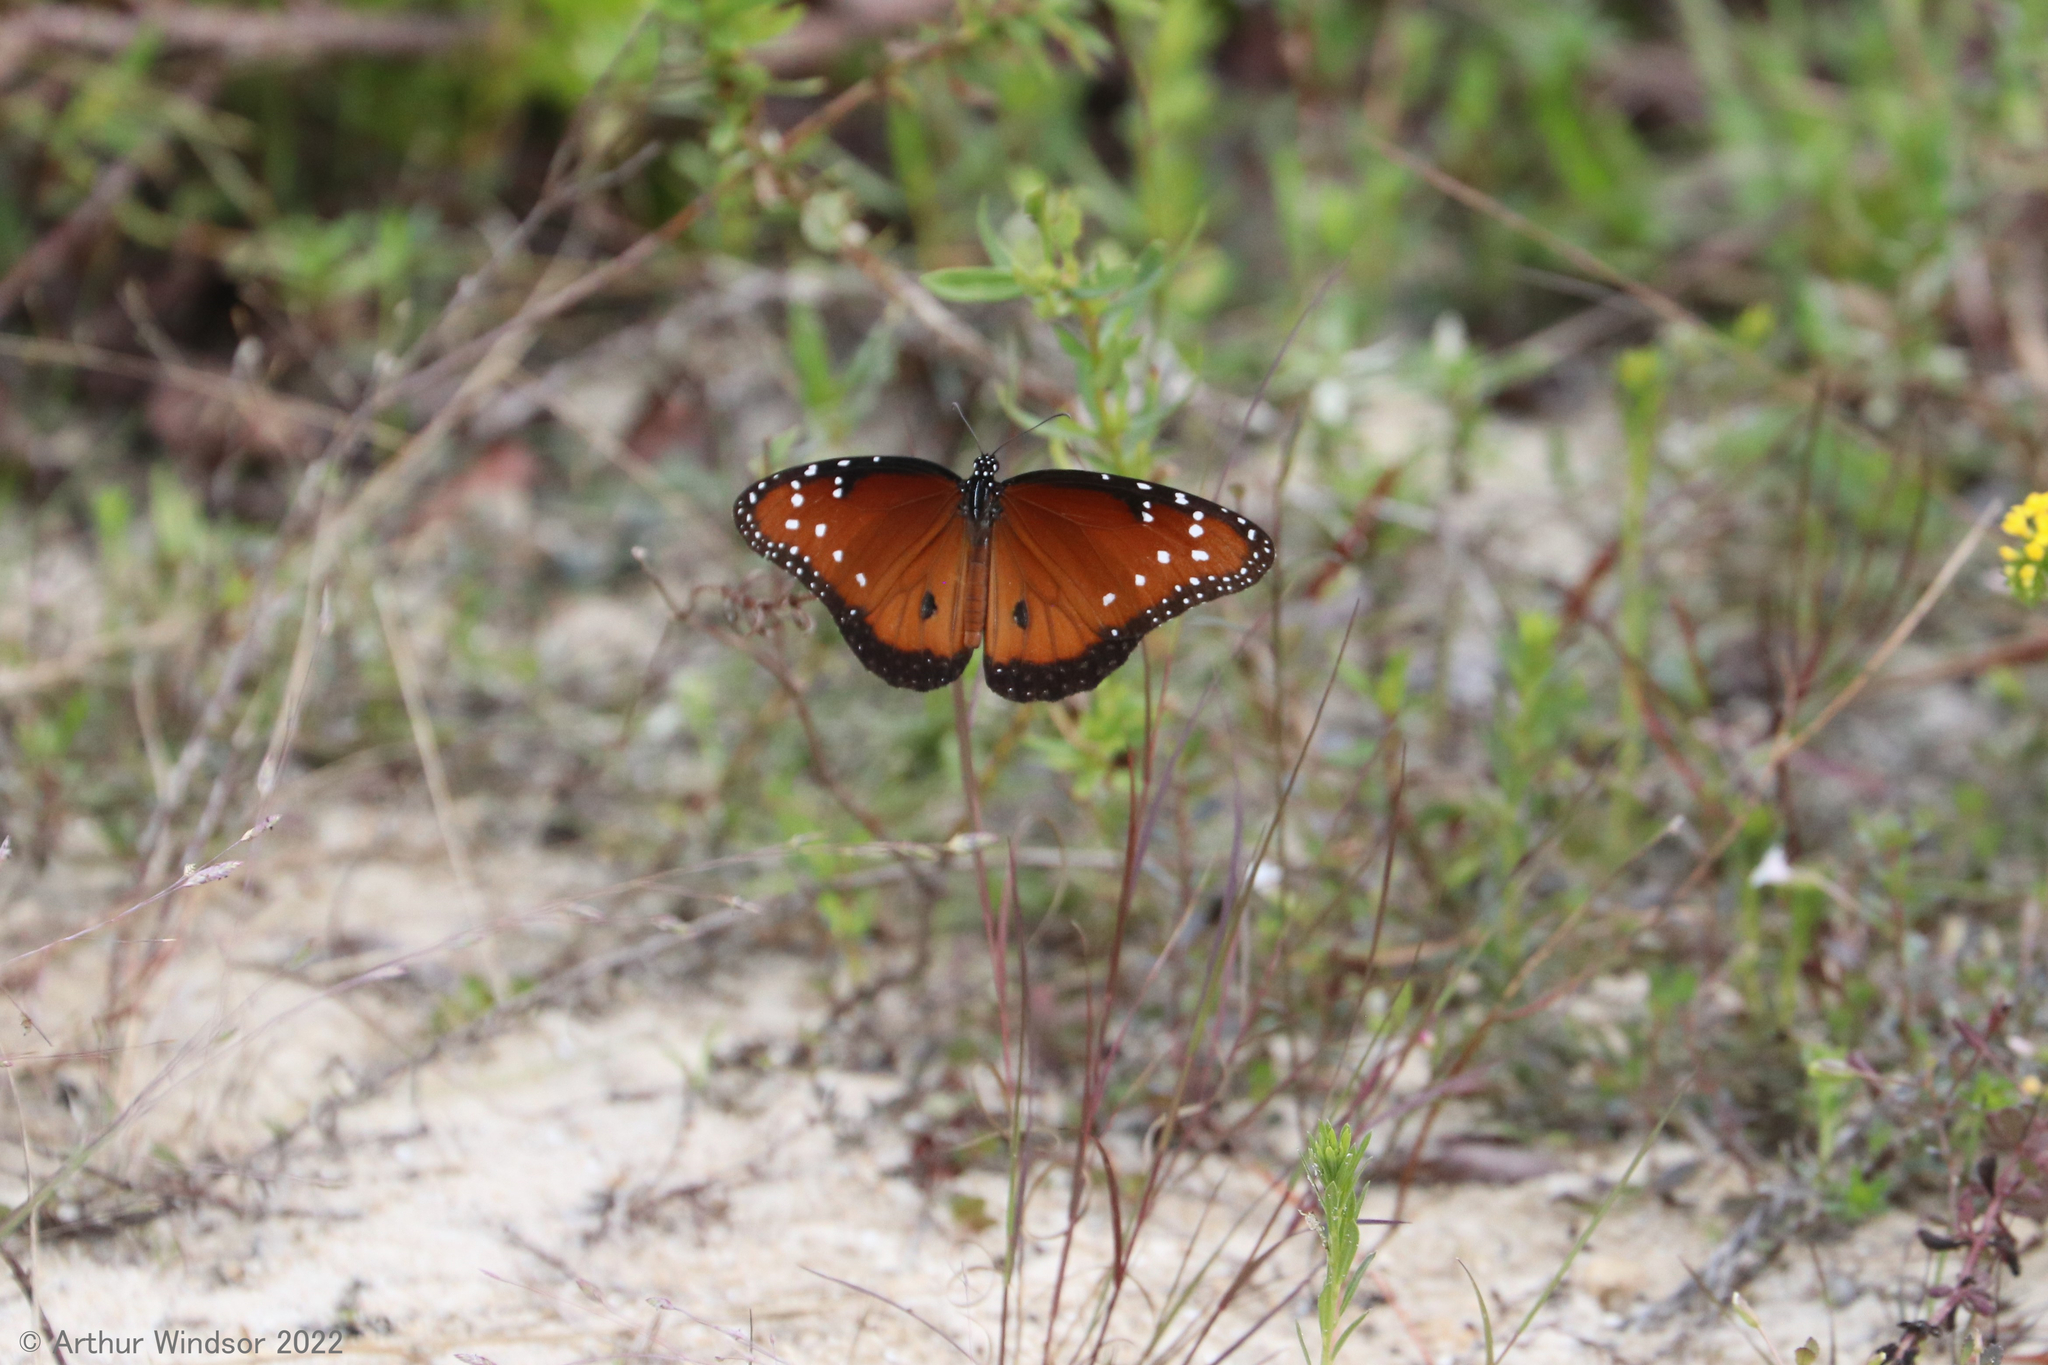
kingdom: Animalia
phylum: Arthropoda
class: Insecta
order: Lepidoptera
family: Nymphalidae
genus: Danaus
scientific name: Danaus gilippus
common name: Queen
